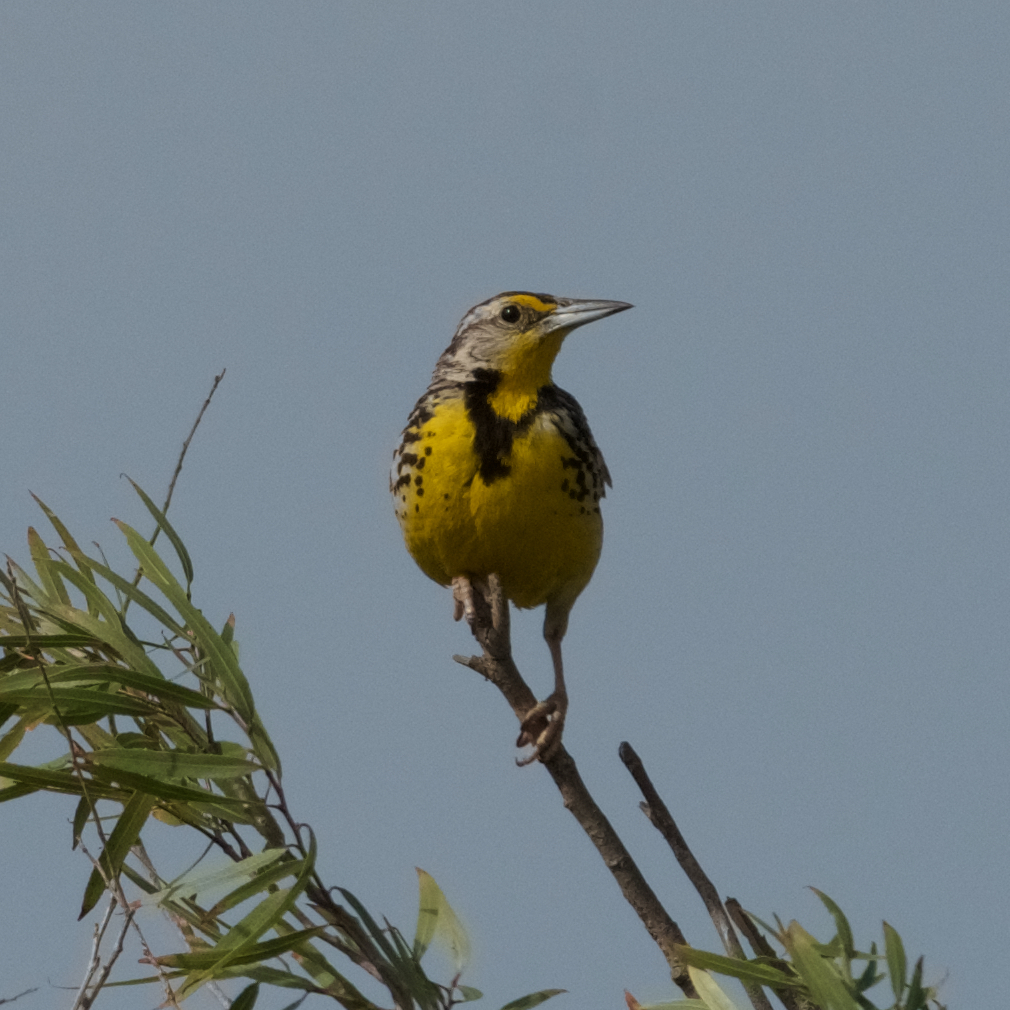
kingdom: Animalia
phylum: Chordata
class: Aves
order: Passeriformes
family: Icteridae
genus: Sturnella
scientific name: Sturnella neglecta
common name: Western meadowlark
